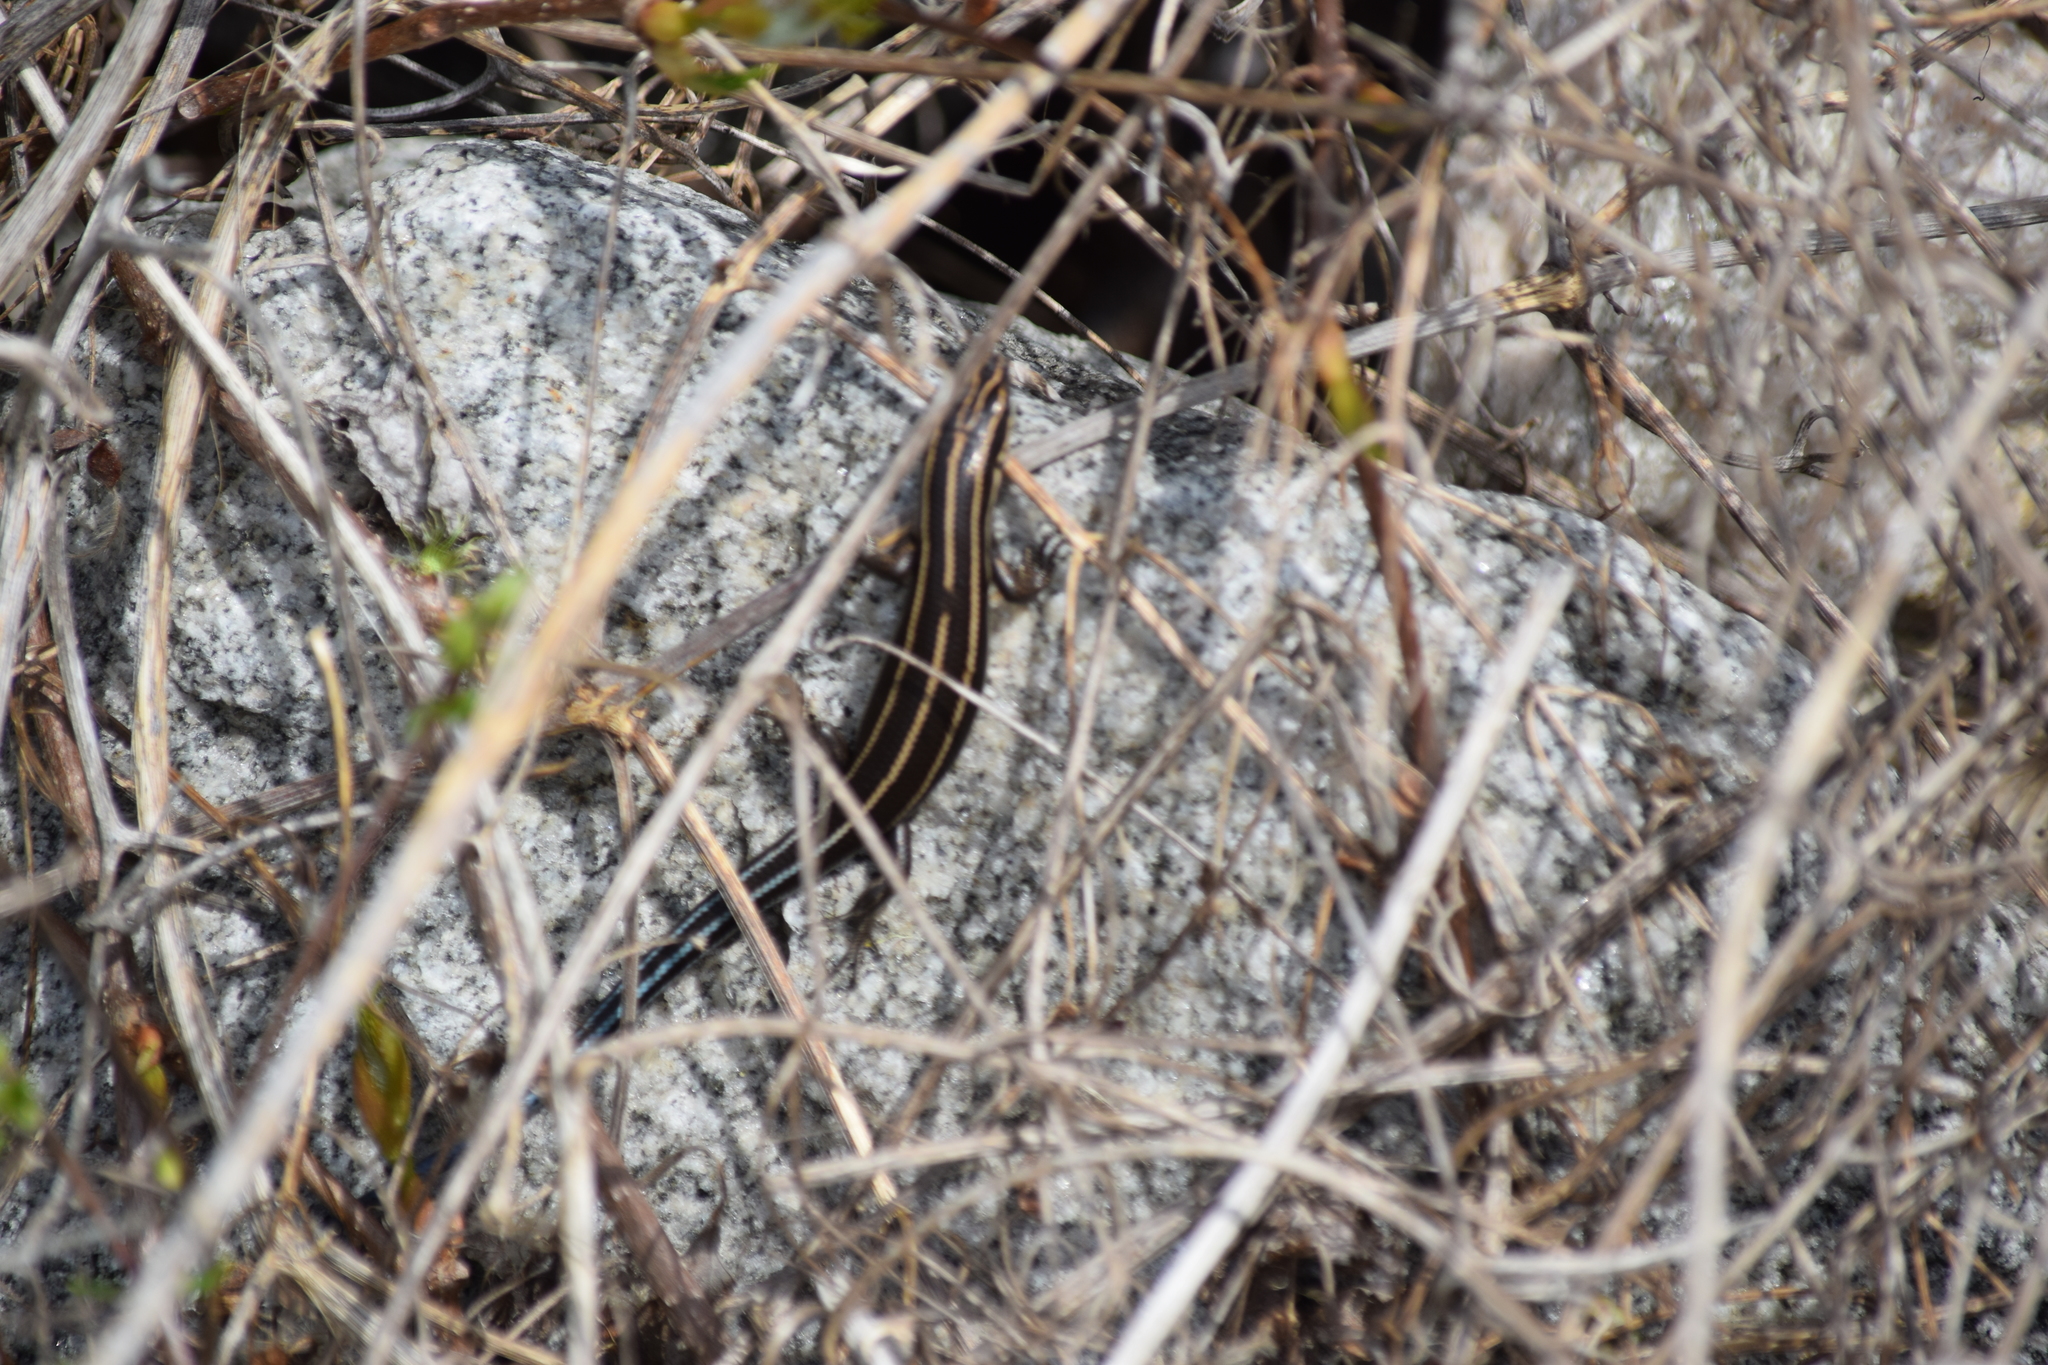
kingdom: Animalia
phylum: Chordata
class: Squamata
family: Scincidae
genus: Plestiodon
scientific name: Plestiodon fasciatus
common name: Five-lined skink
